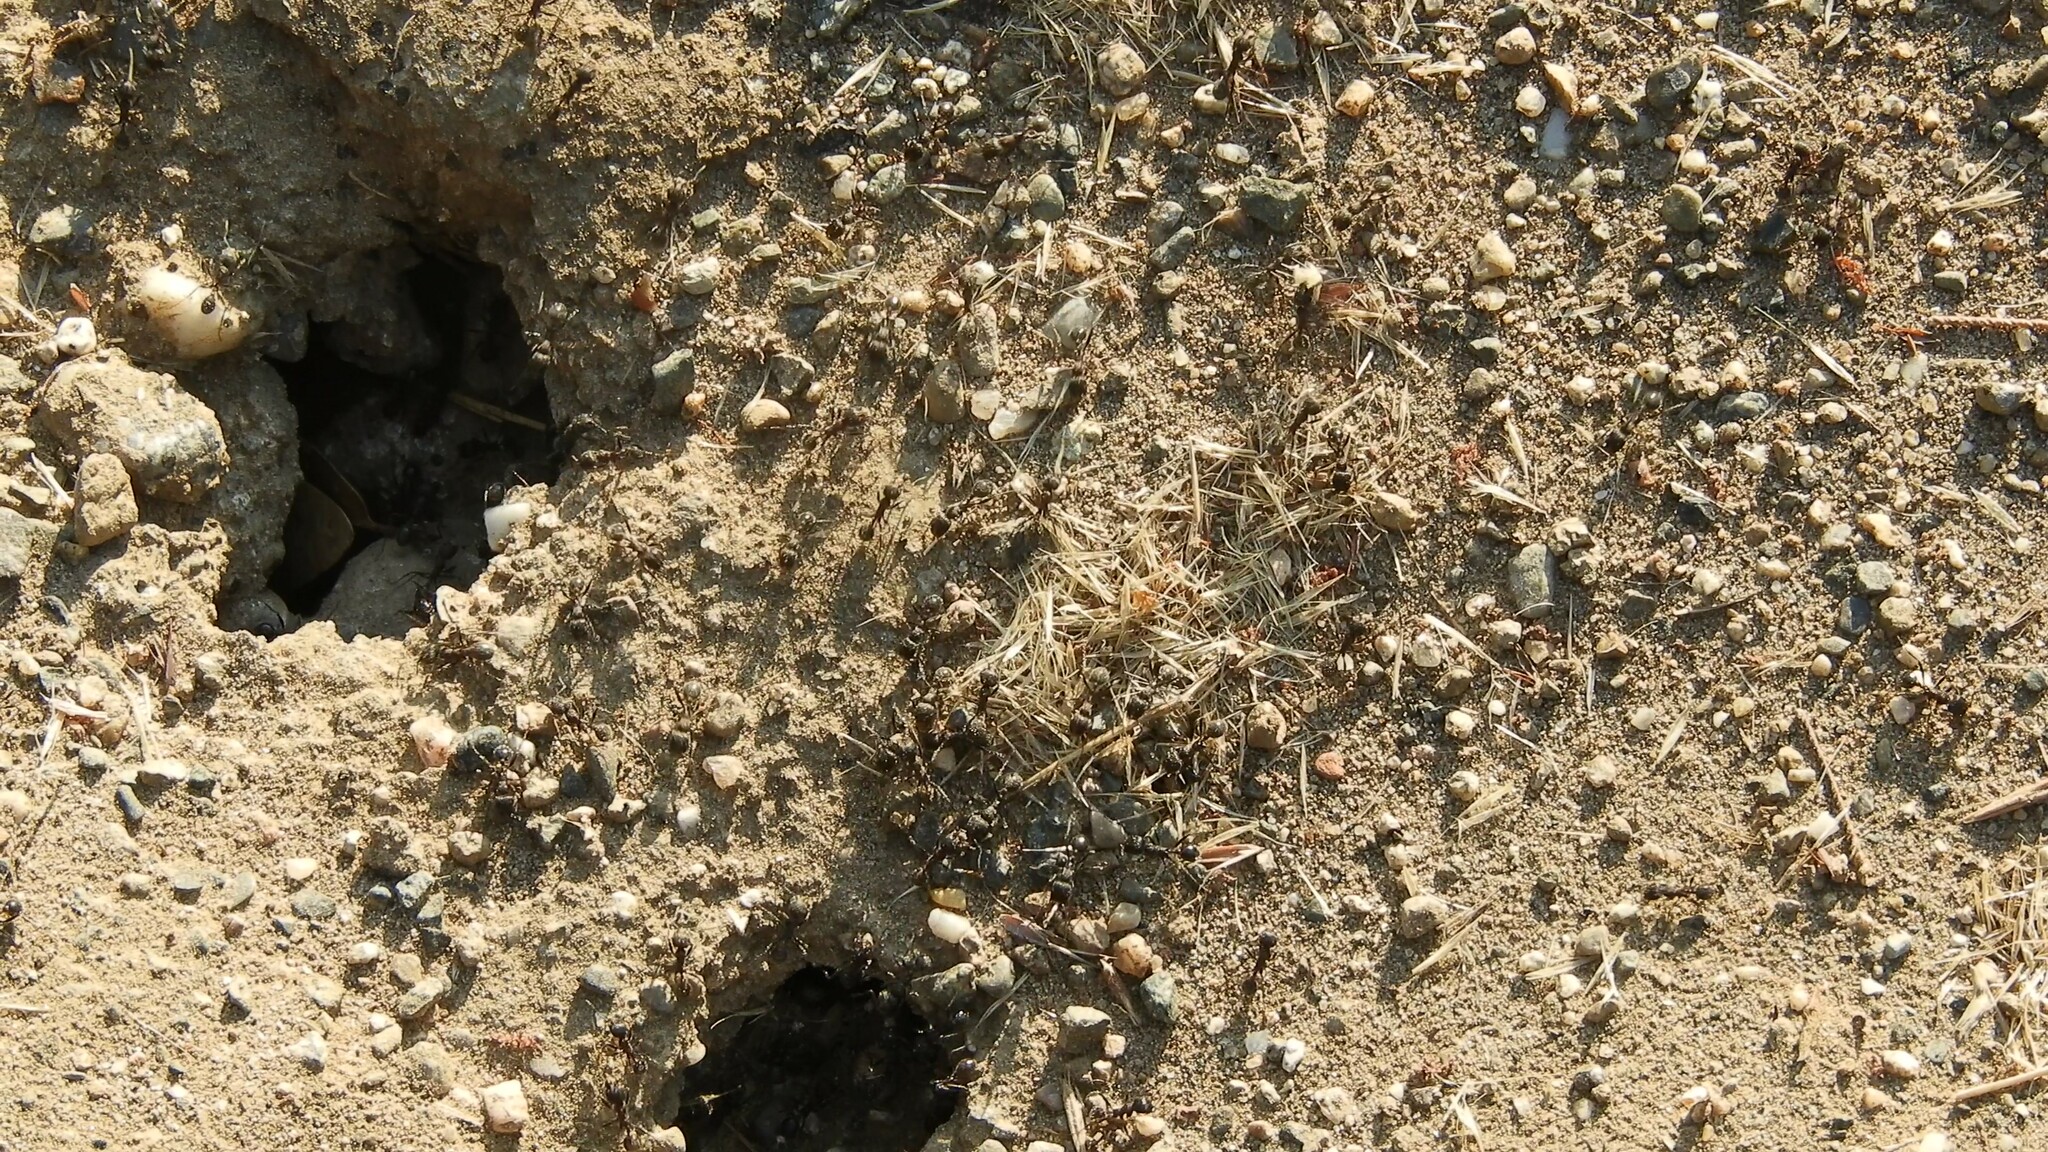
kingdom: Animalia
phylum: Arthropoda
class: Insecta
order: Hymenoptera
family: Formicidae
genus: Veromessor
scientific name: Veromessor andrei
